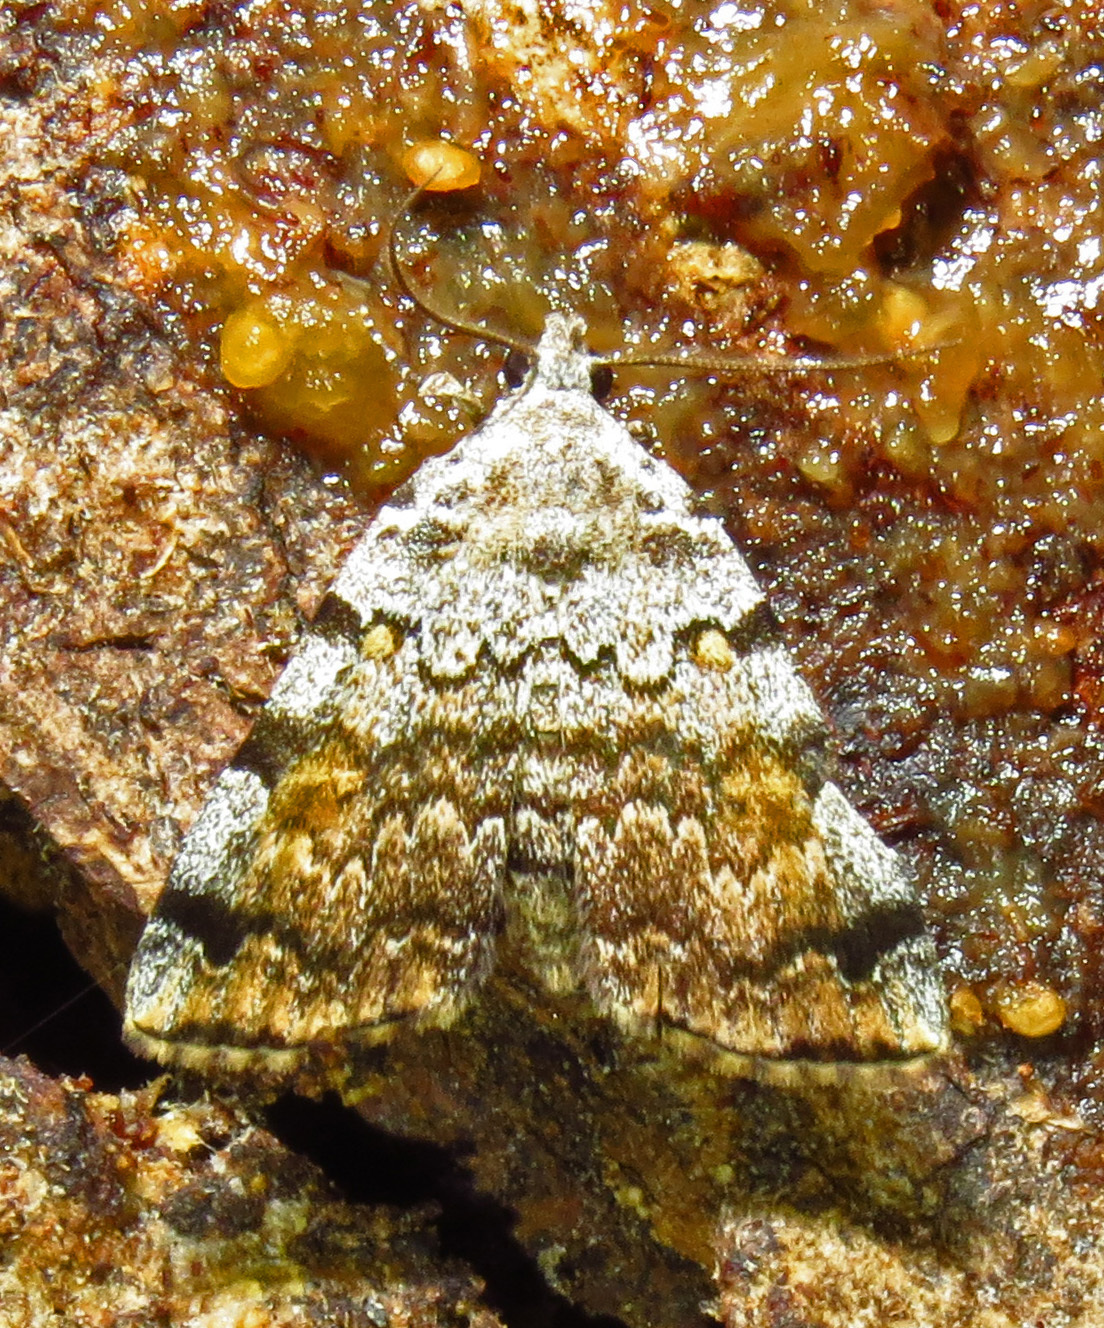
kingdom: Animalia
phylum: Arthropoda
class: Insecta
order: Lepidoptera
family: Erebidae
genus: Idia
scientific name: Idia americalis
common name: American idia moth
